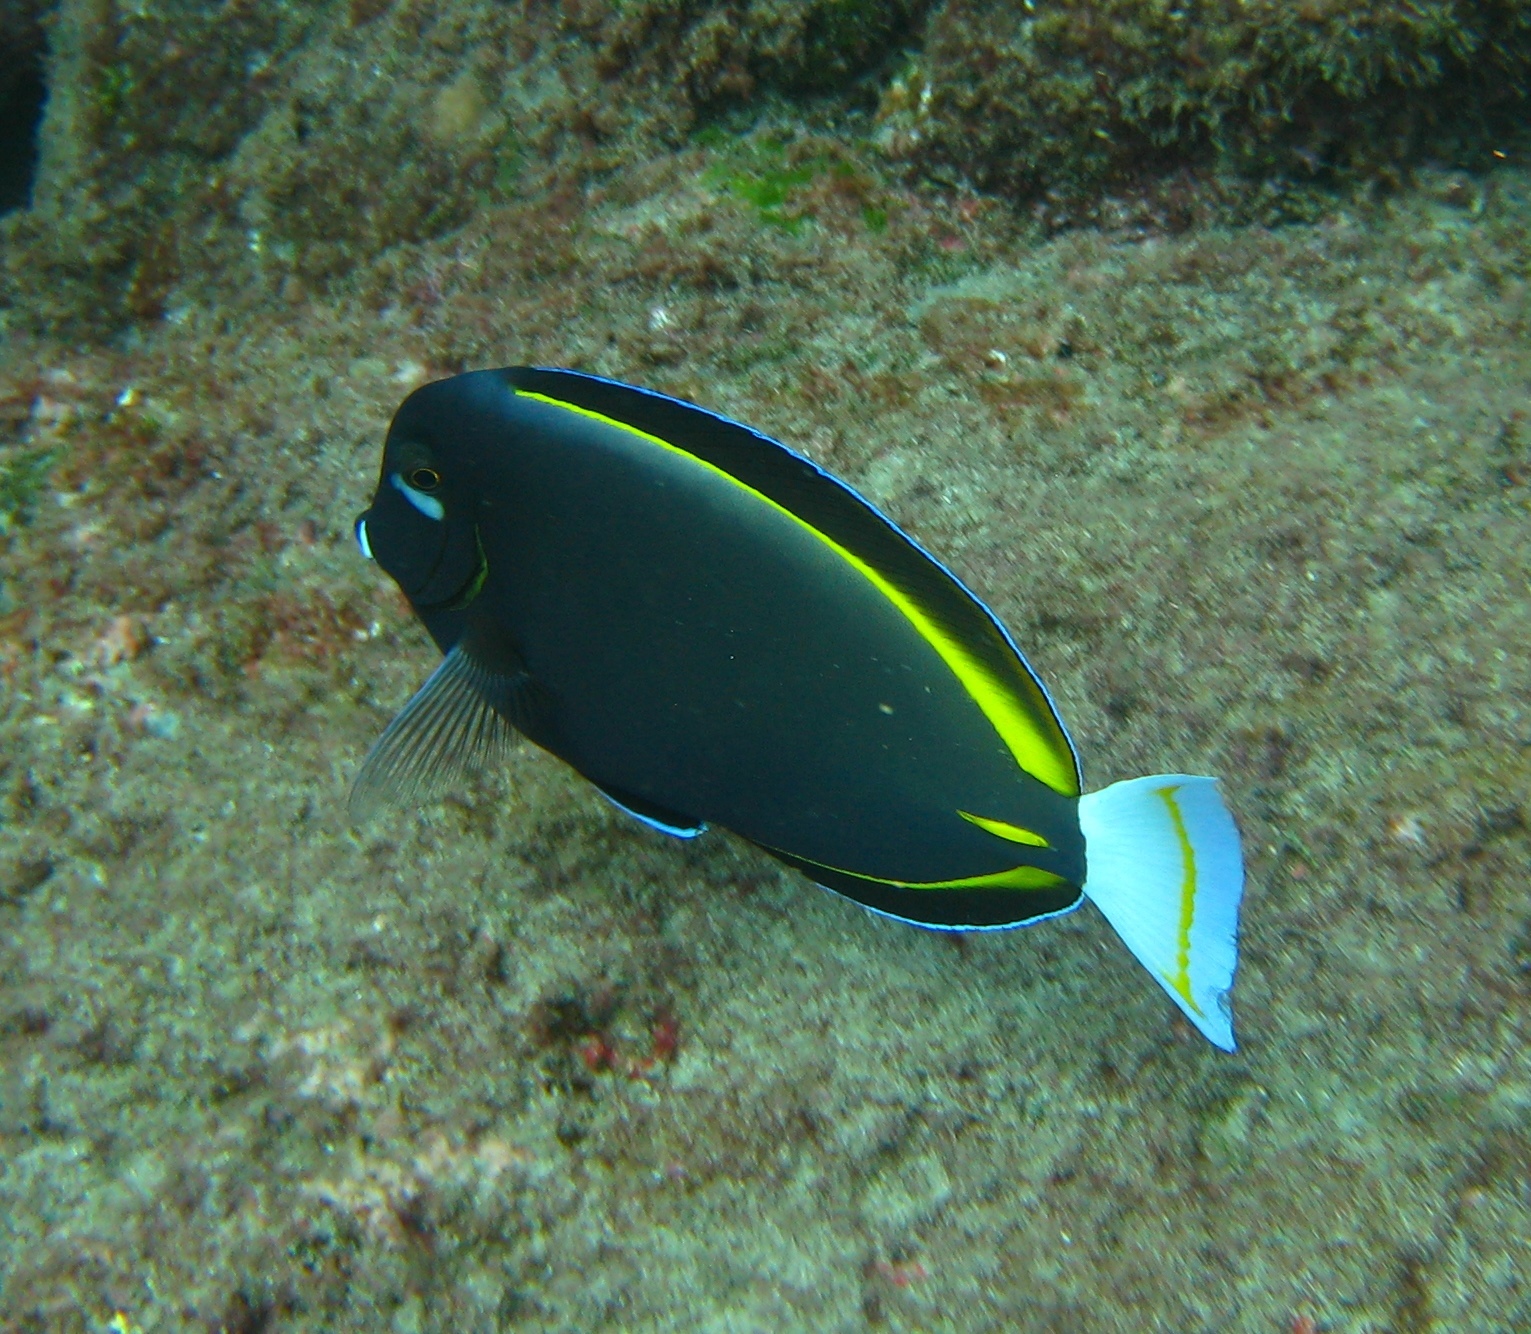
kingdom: Animalia
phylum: Chordata
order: Perciformes
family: Acanthuridae
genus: Acanthurus
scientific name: Acanthurus nigricans
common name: Whitecheek surgeonfish
